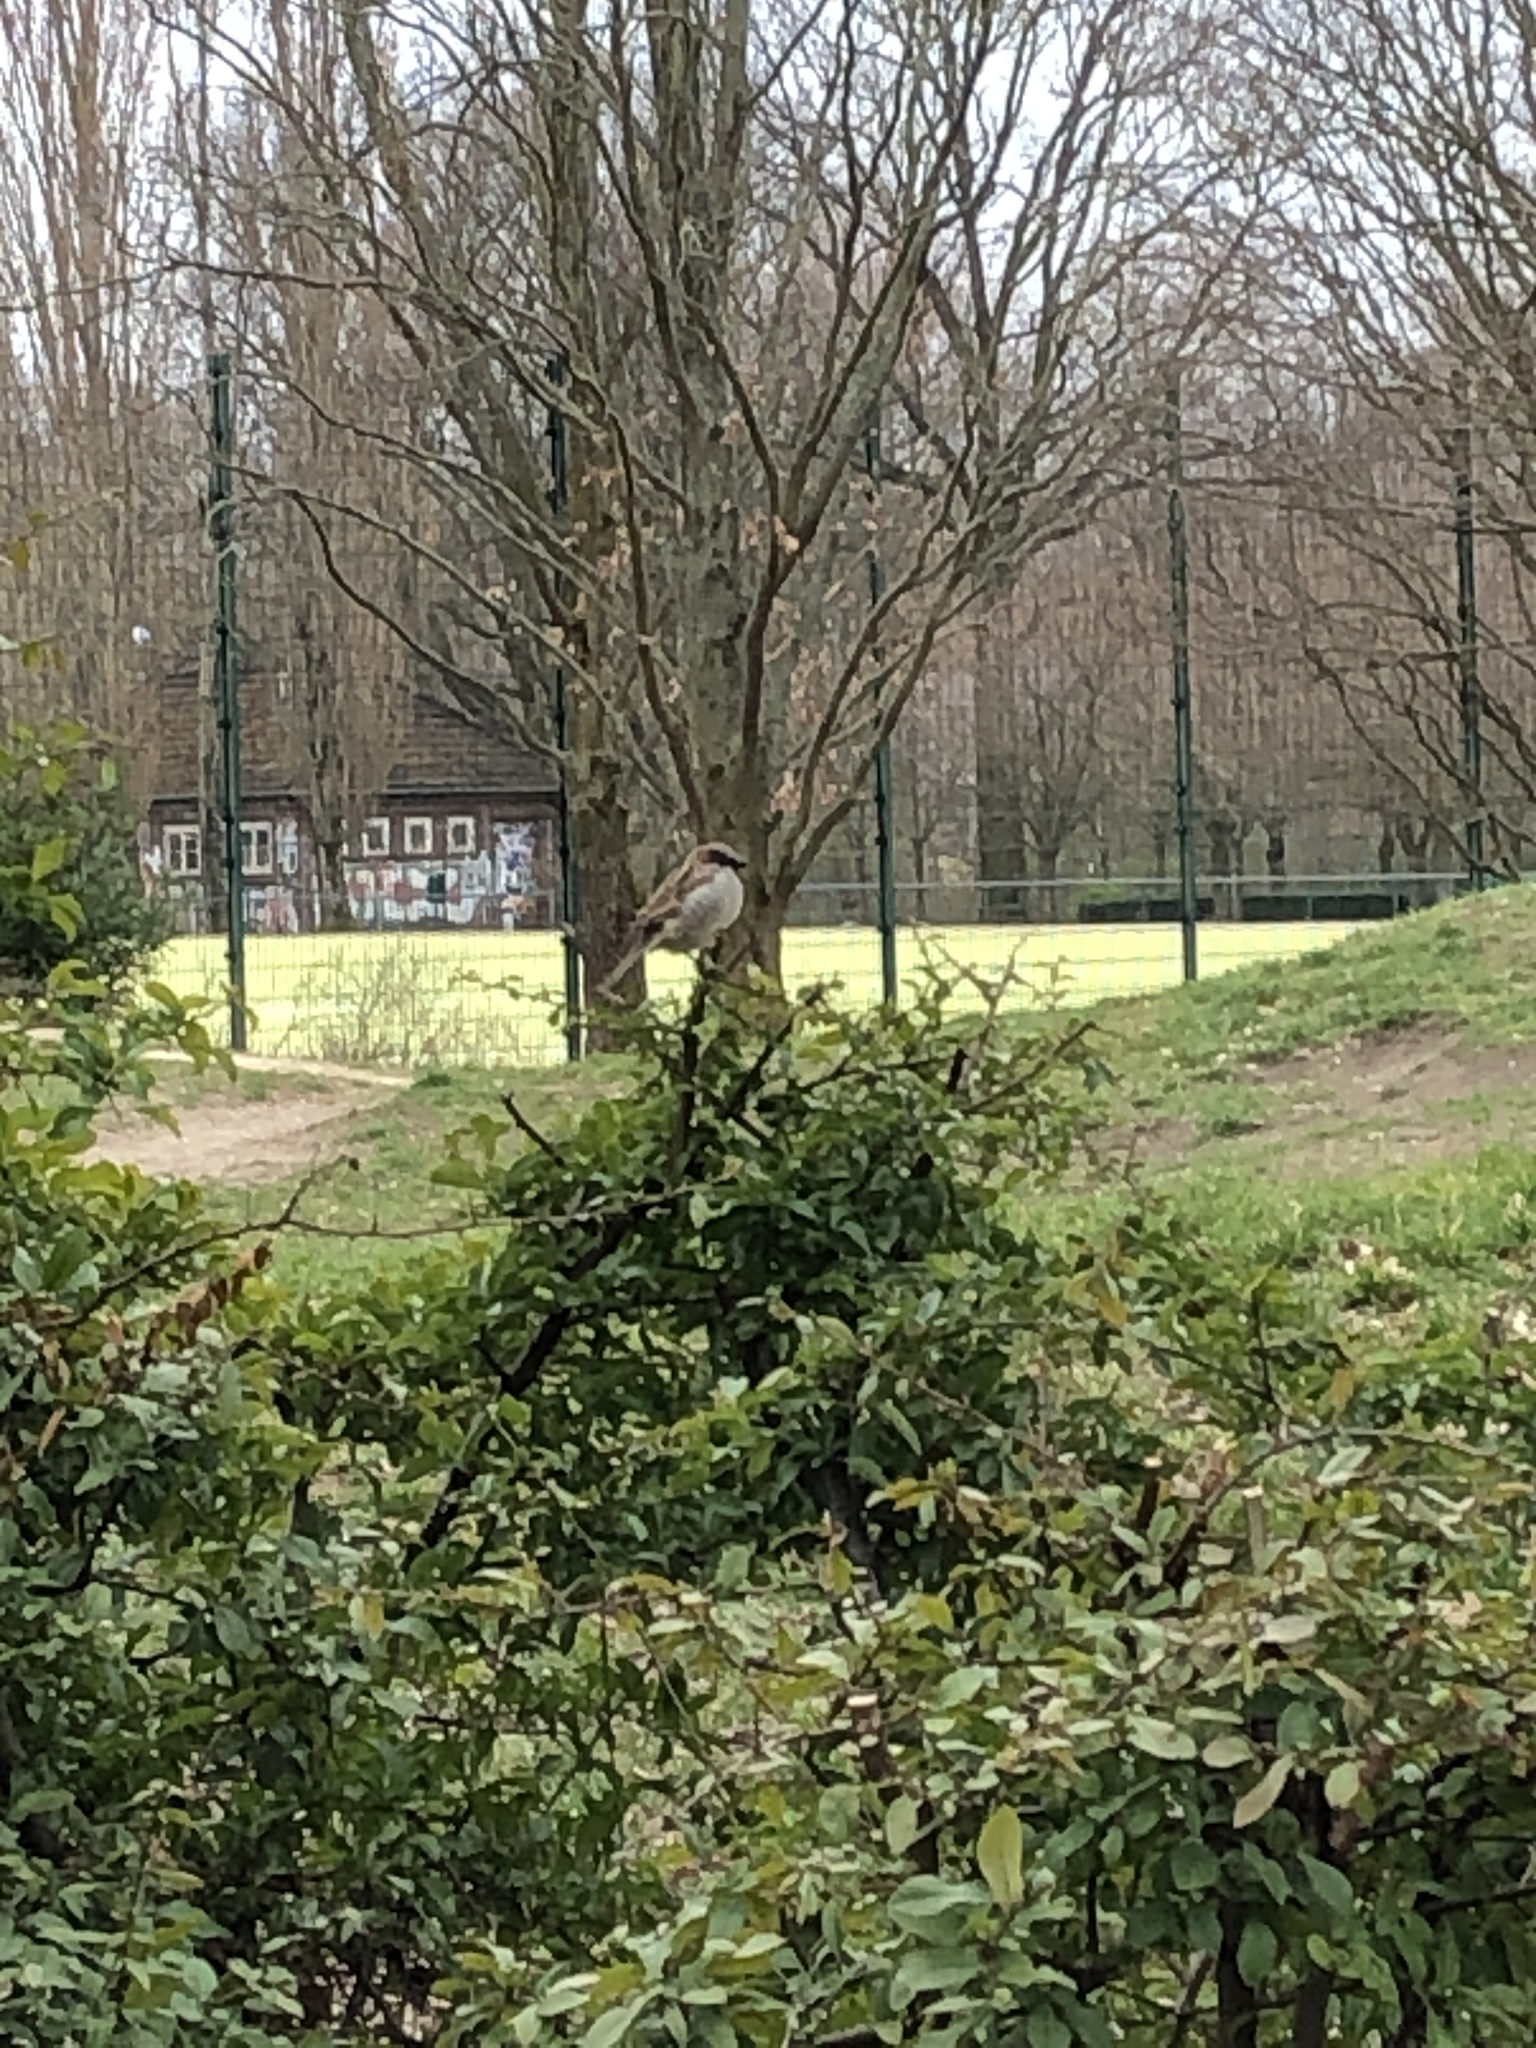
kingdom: Animalia
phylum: Chordata
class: Aves
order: Passeriformes
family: Passeridae
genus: Passer
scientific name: Passer domesticus
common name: House sparrow
